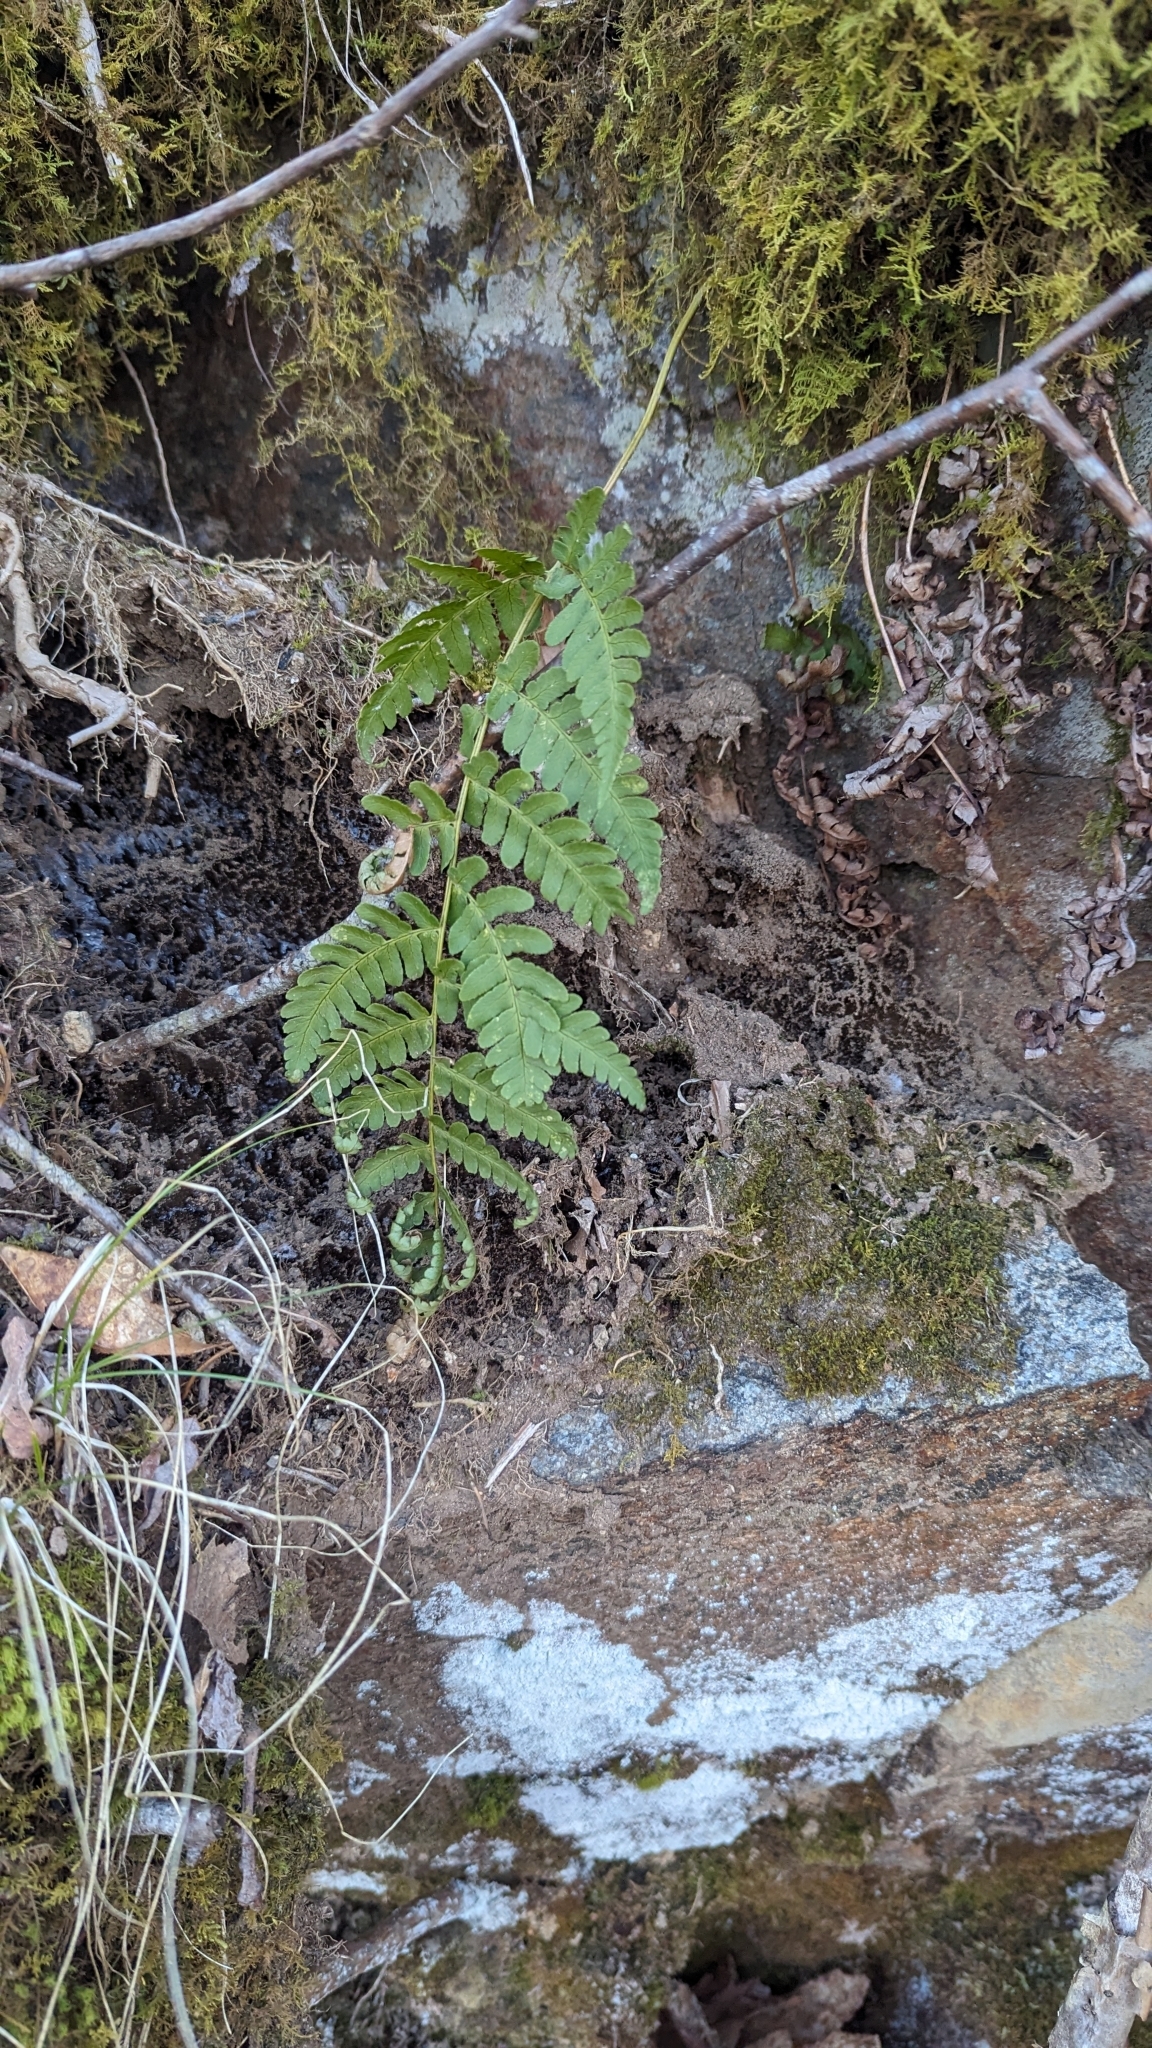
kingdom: Plantae
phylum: Tracheophyta
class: Polypodiopsida
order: Polypodiales
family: Dryopteridaceae
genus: Dryopteris
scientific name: Dryopteris marginalis
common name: Marginal wood fern
